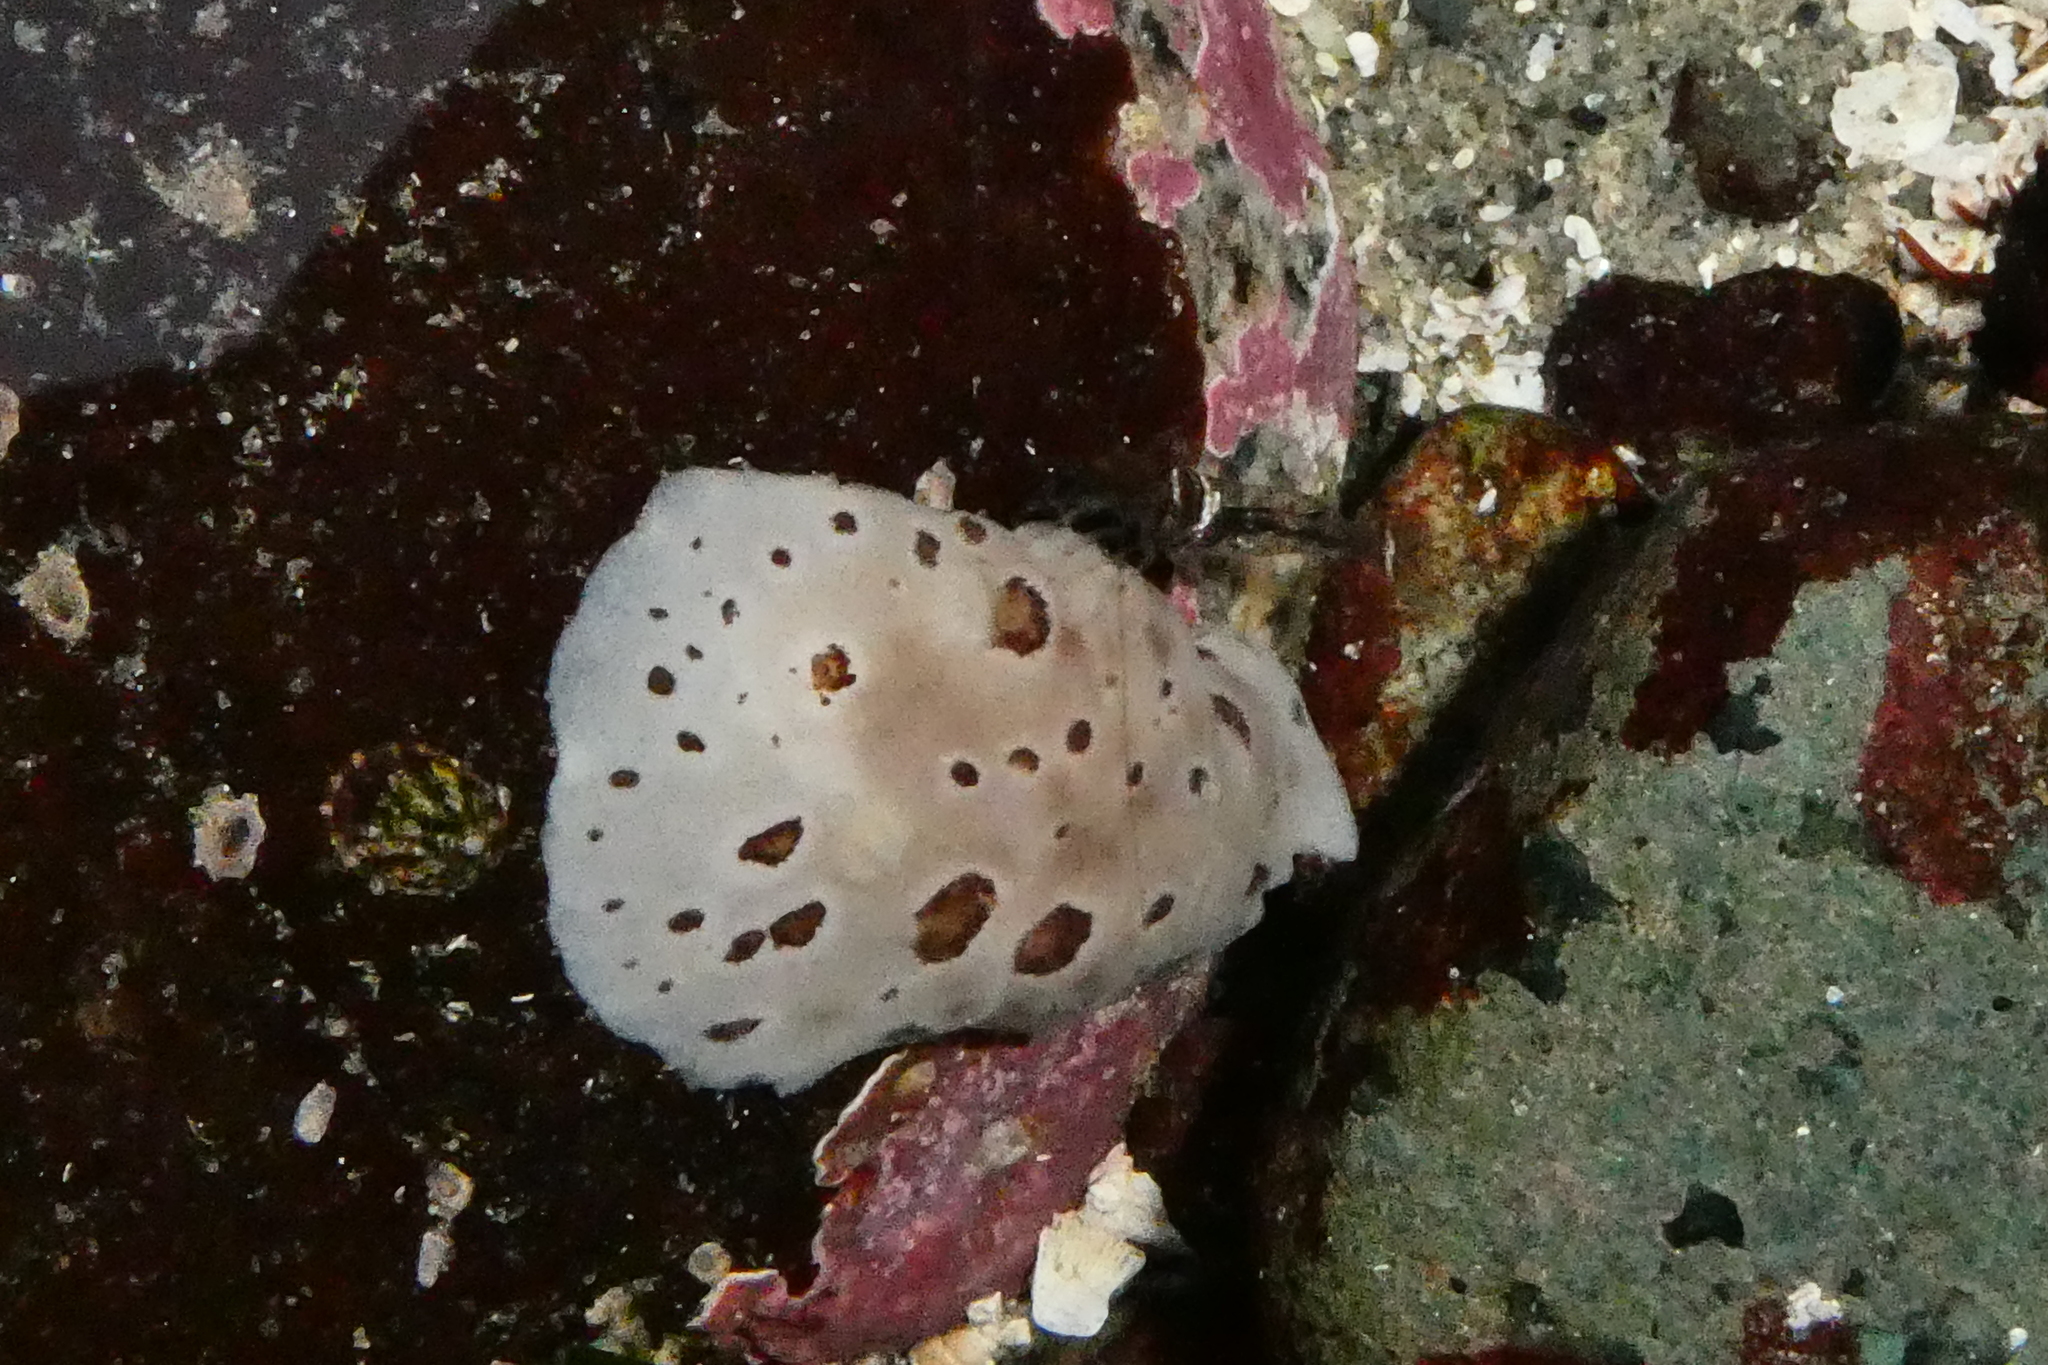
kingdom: Animalia
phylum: Mollusca
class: Gastropoda
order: Nudibranchia
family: Discodorididae
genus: Diaulula
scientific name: Diaulula odonoghuei
